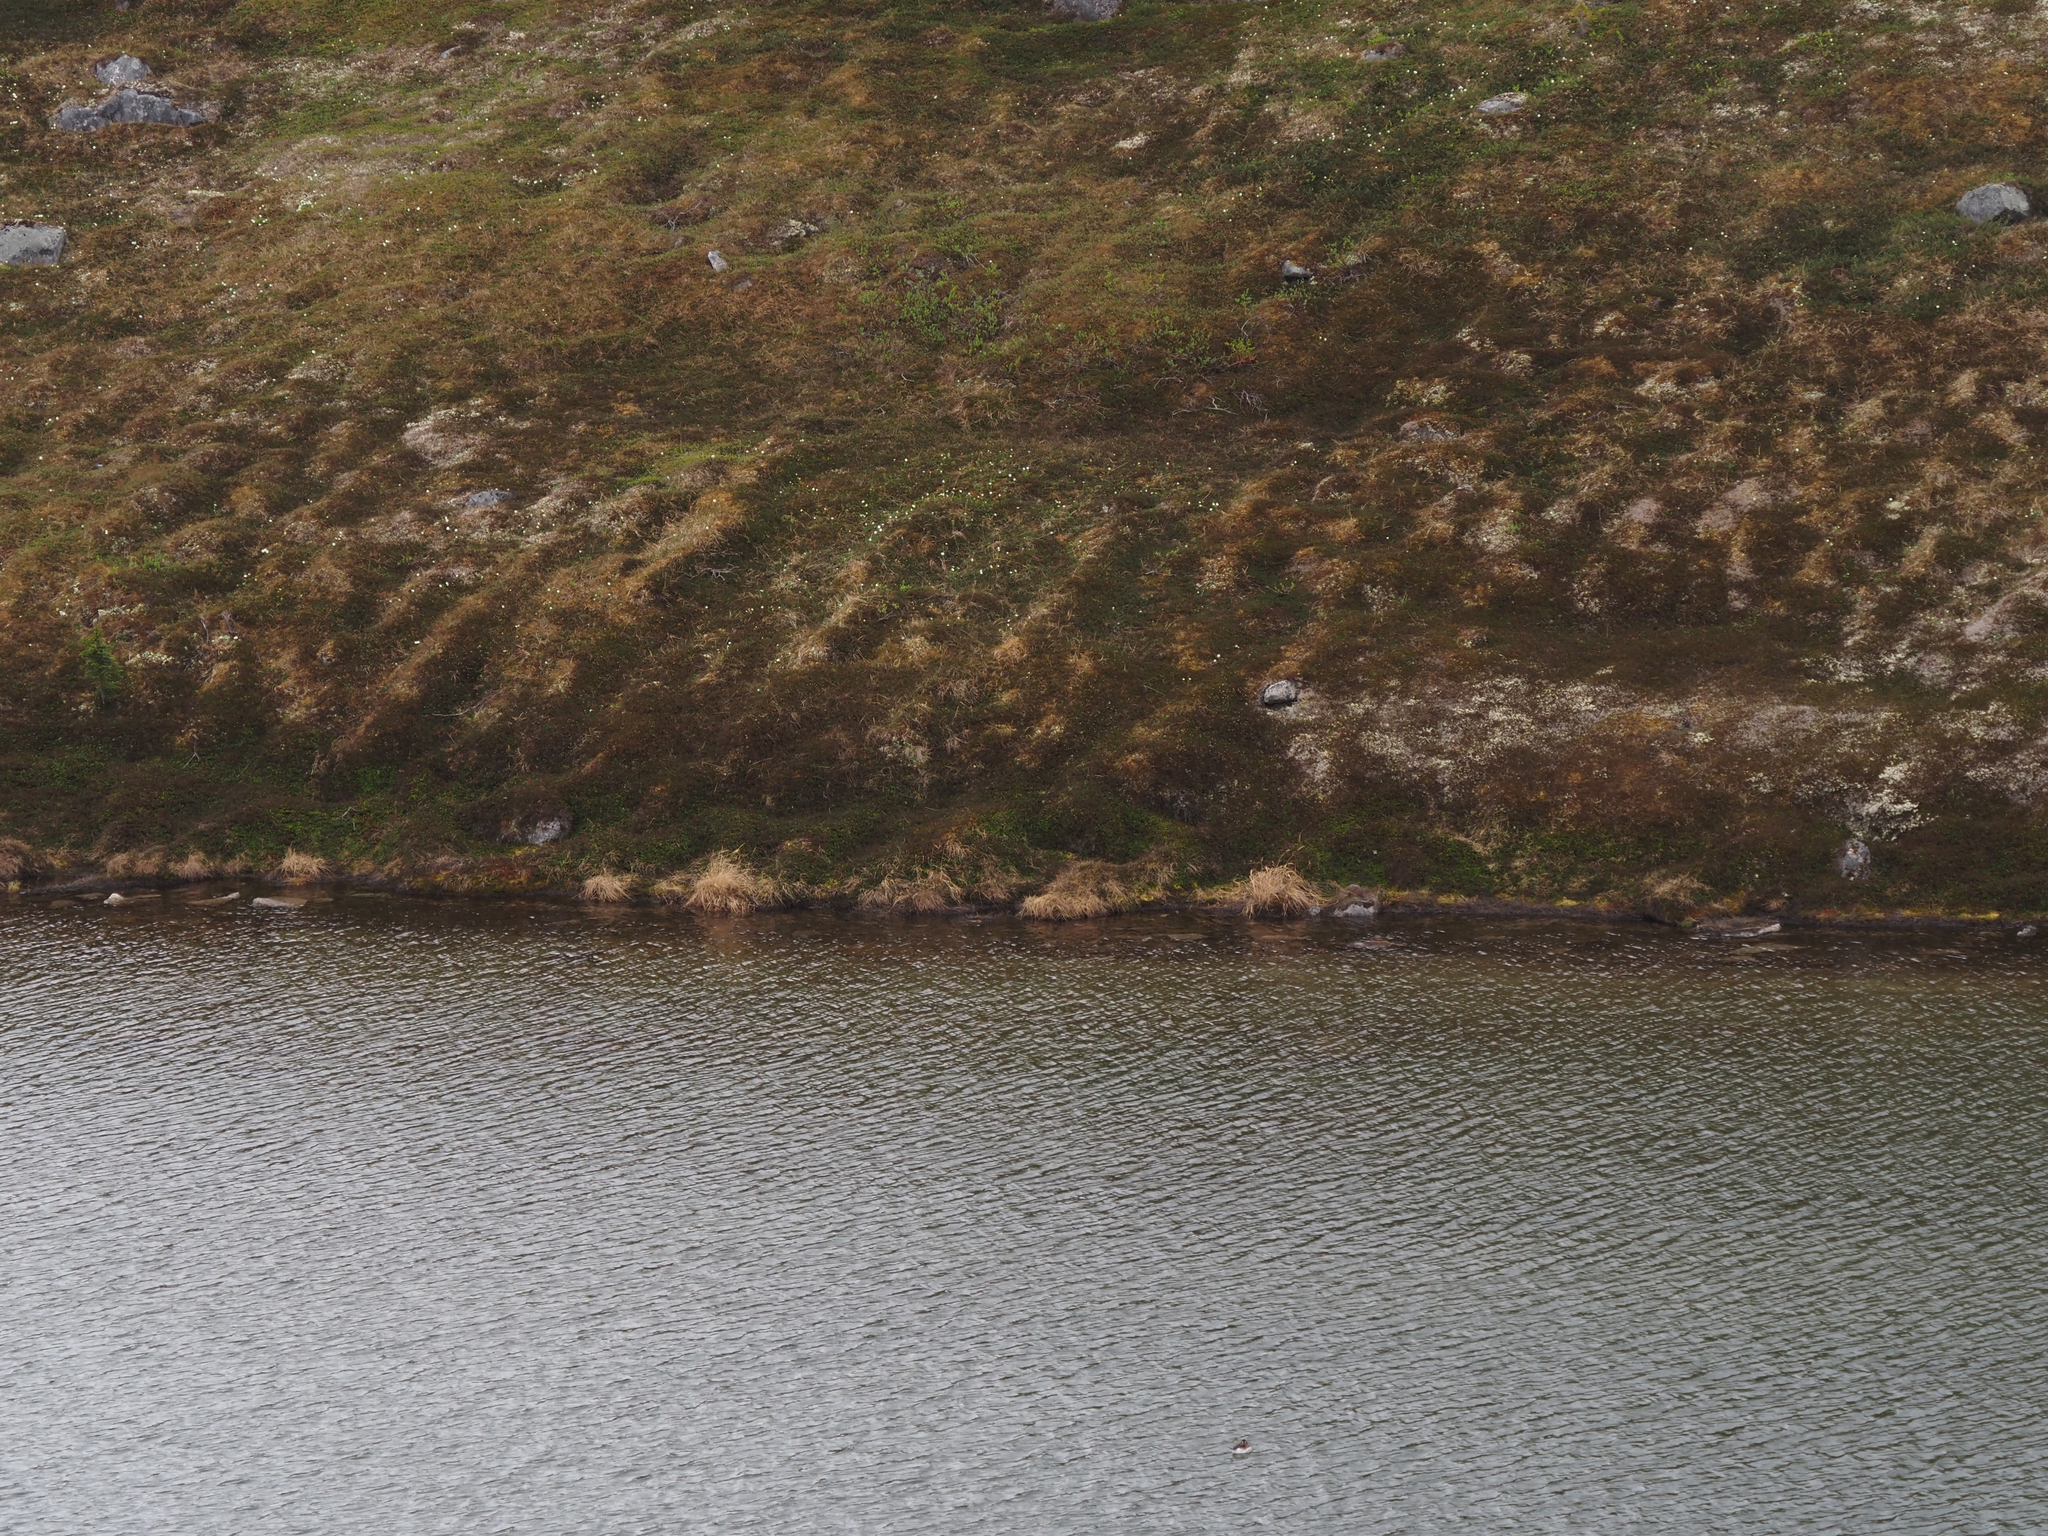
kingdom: Animalia
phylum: Chordata
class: Aves
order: Anseriformes
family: Anatidae
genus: Clangula
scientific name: Clangula hyemalis
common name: Long-tailed duck
